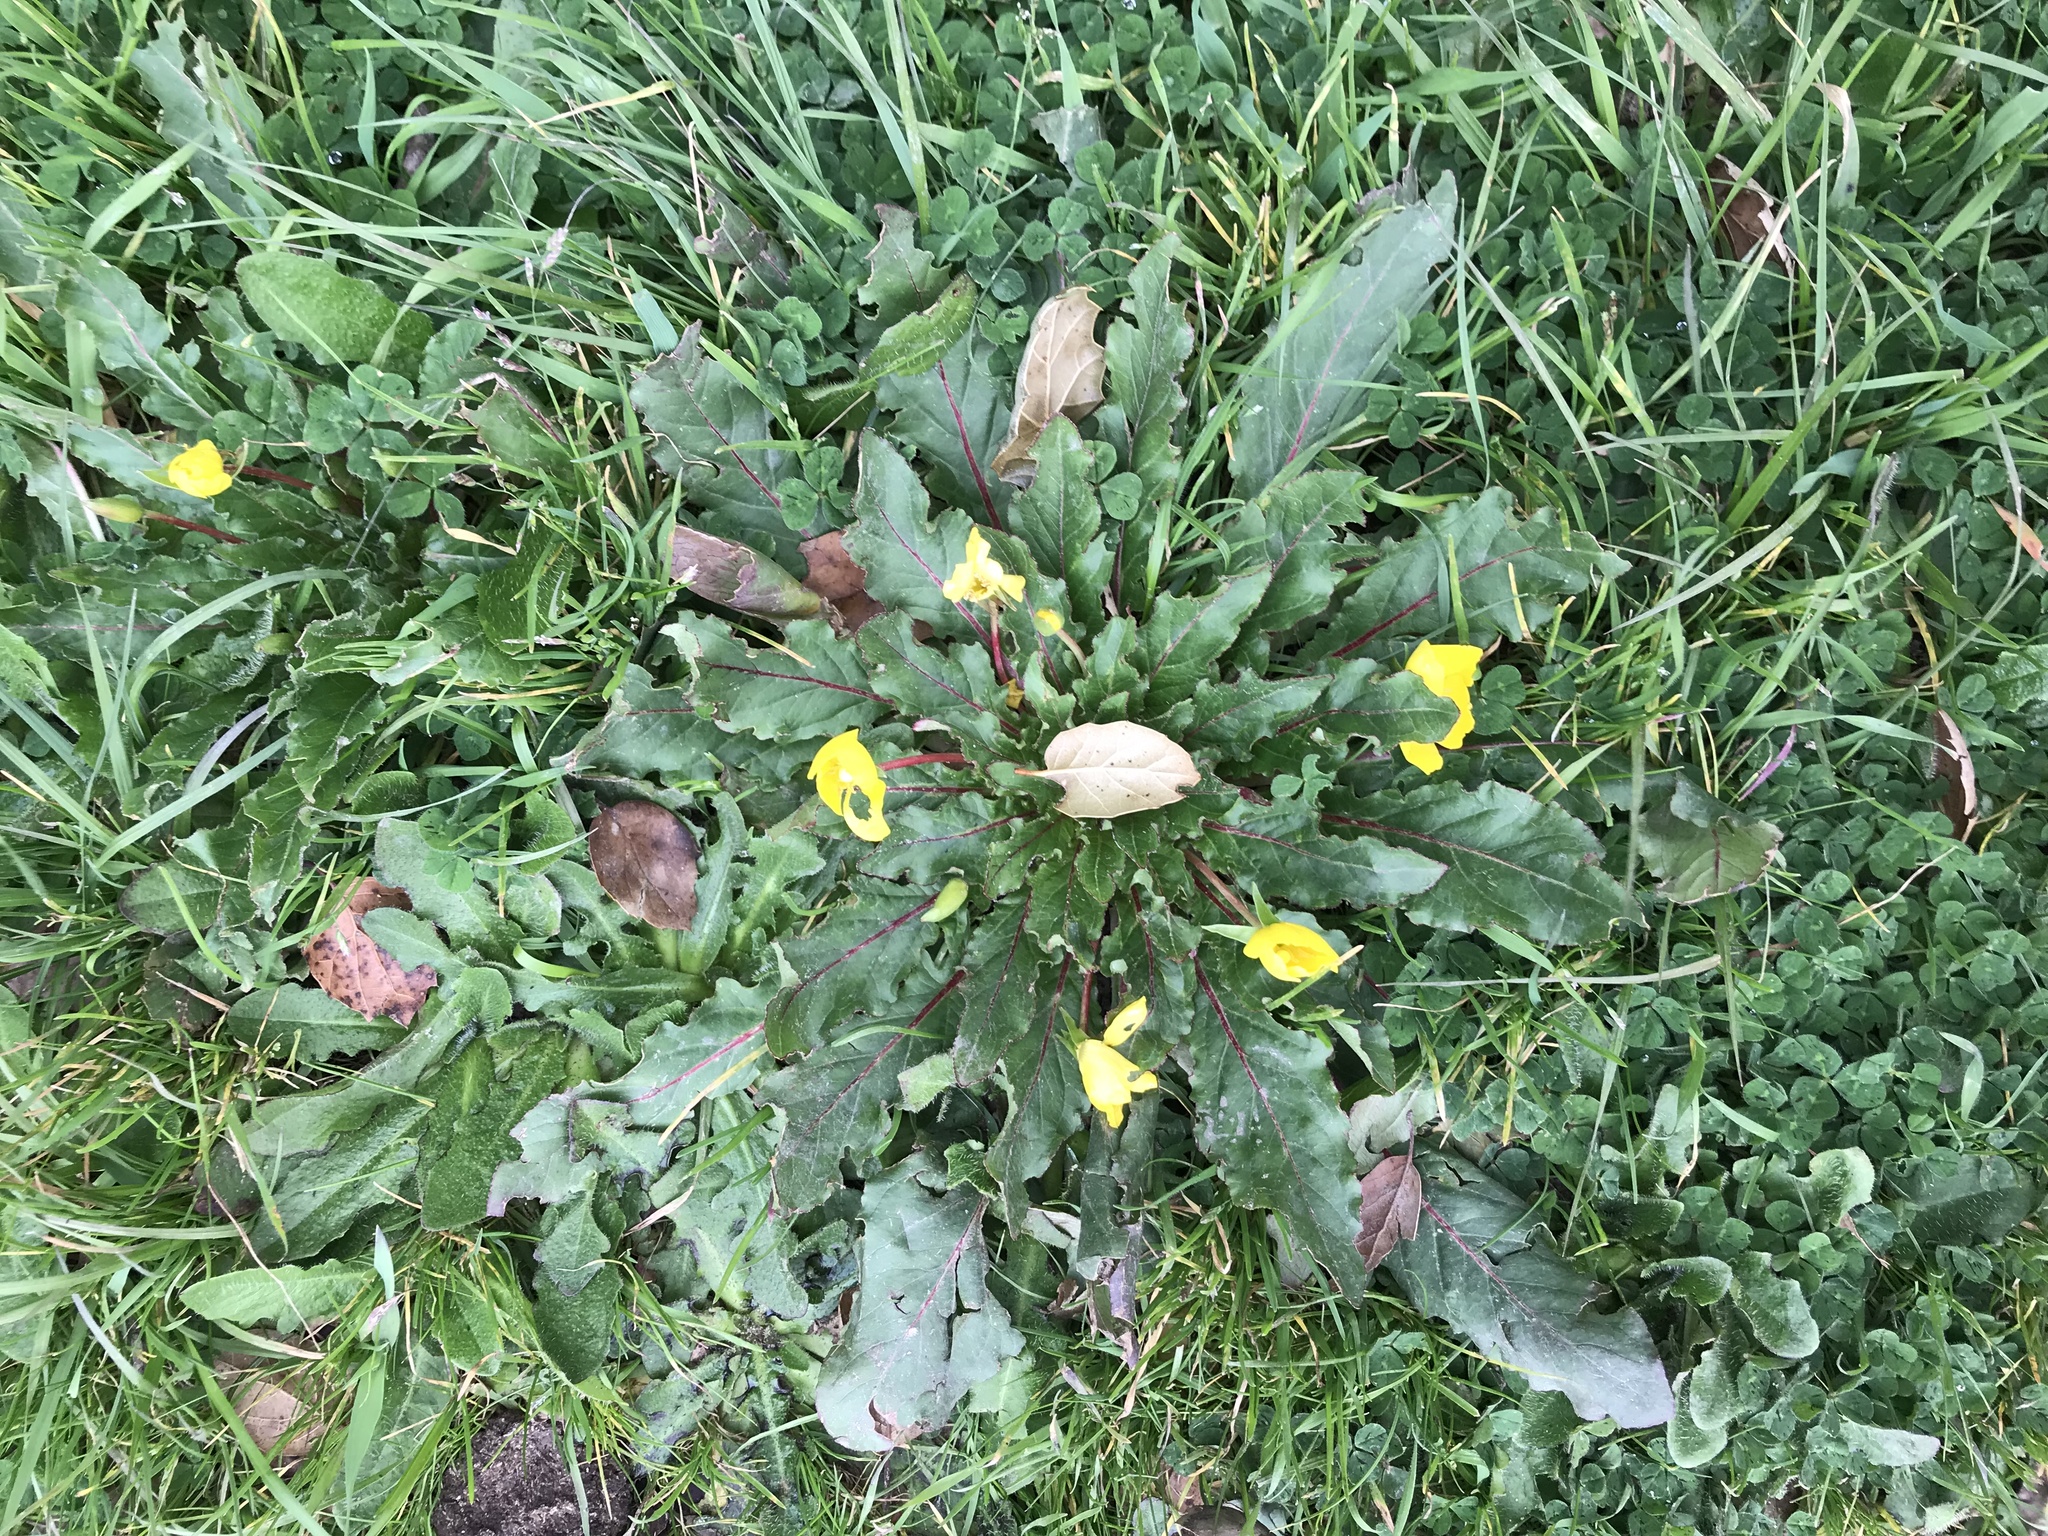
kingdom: Plantae
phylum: Tracheophyta
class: Magnoliopsida
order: Myrtales
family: Onagraceae
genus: Taraxia
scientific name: Taraxia ovata
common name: Goldeneggs
